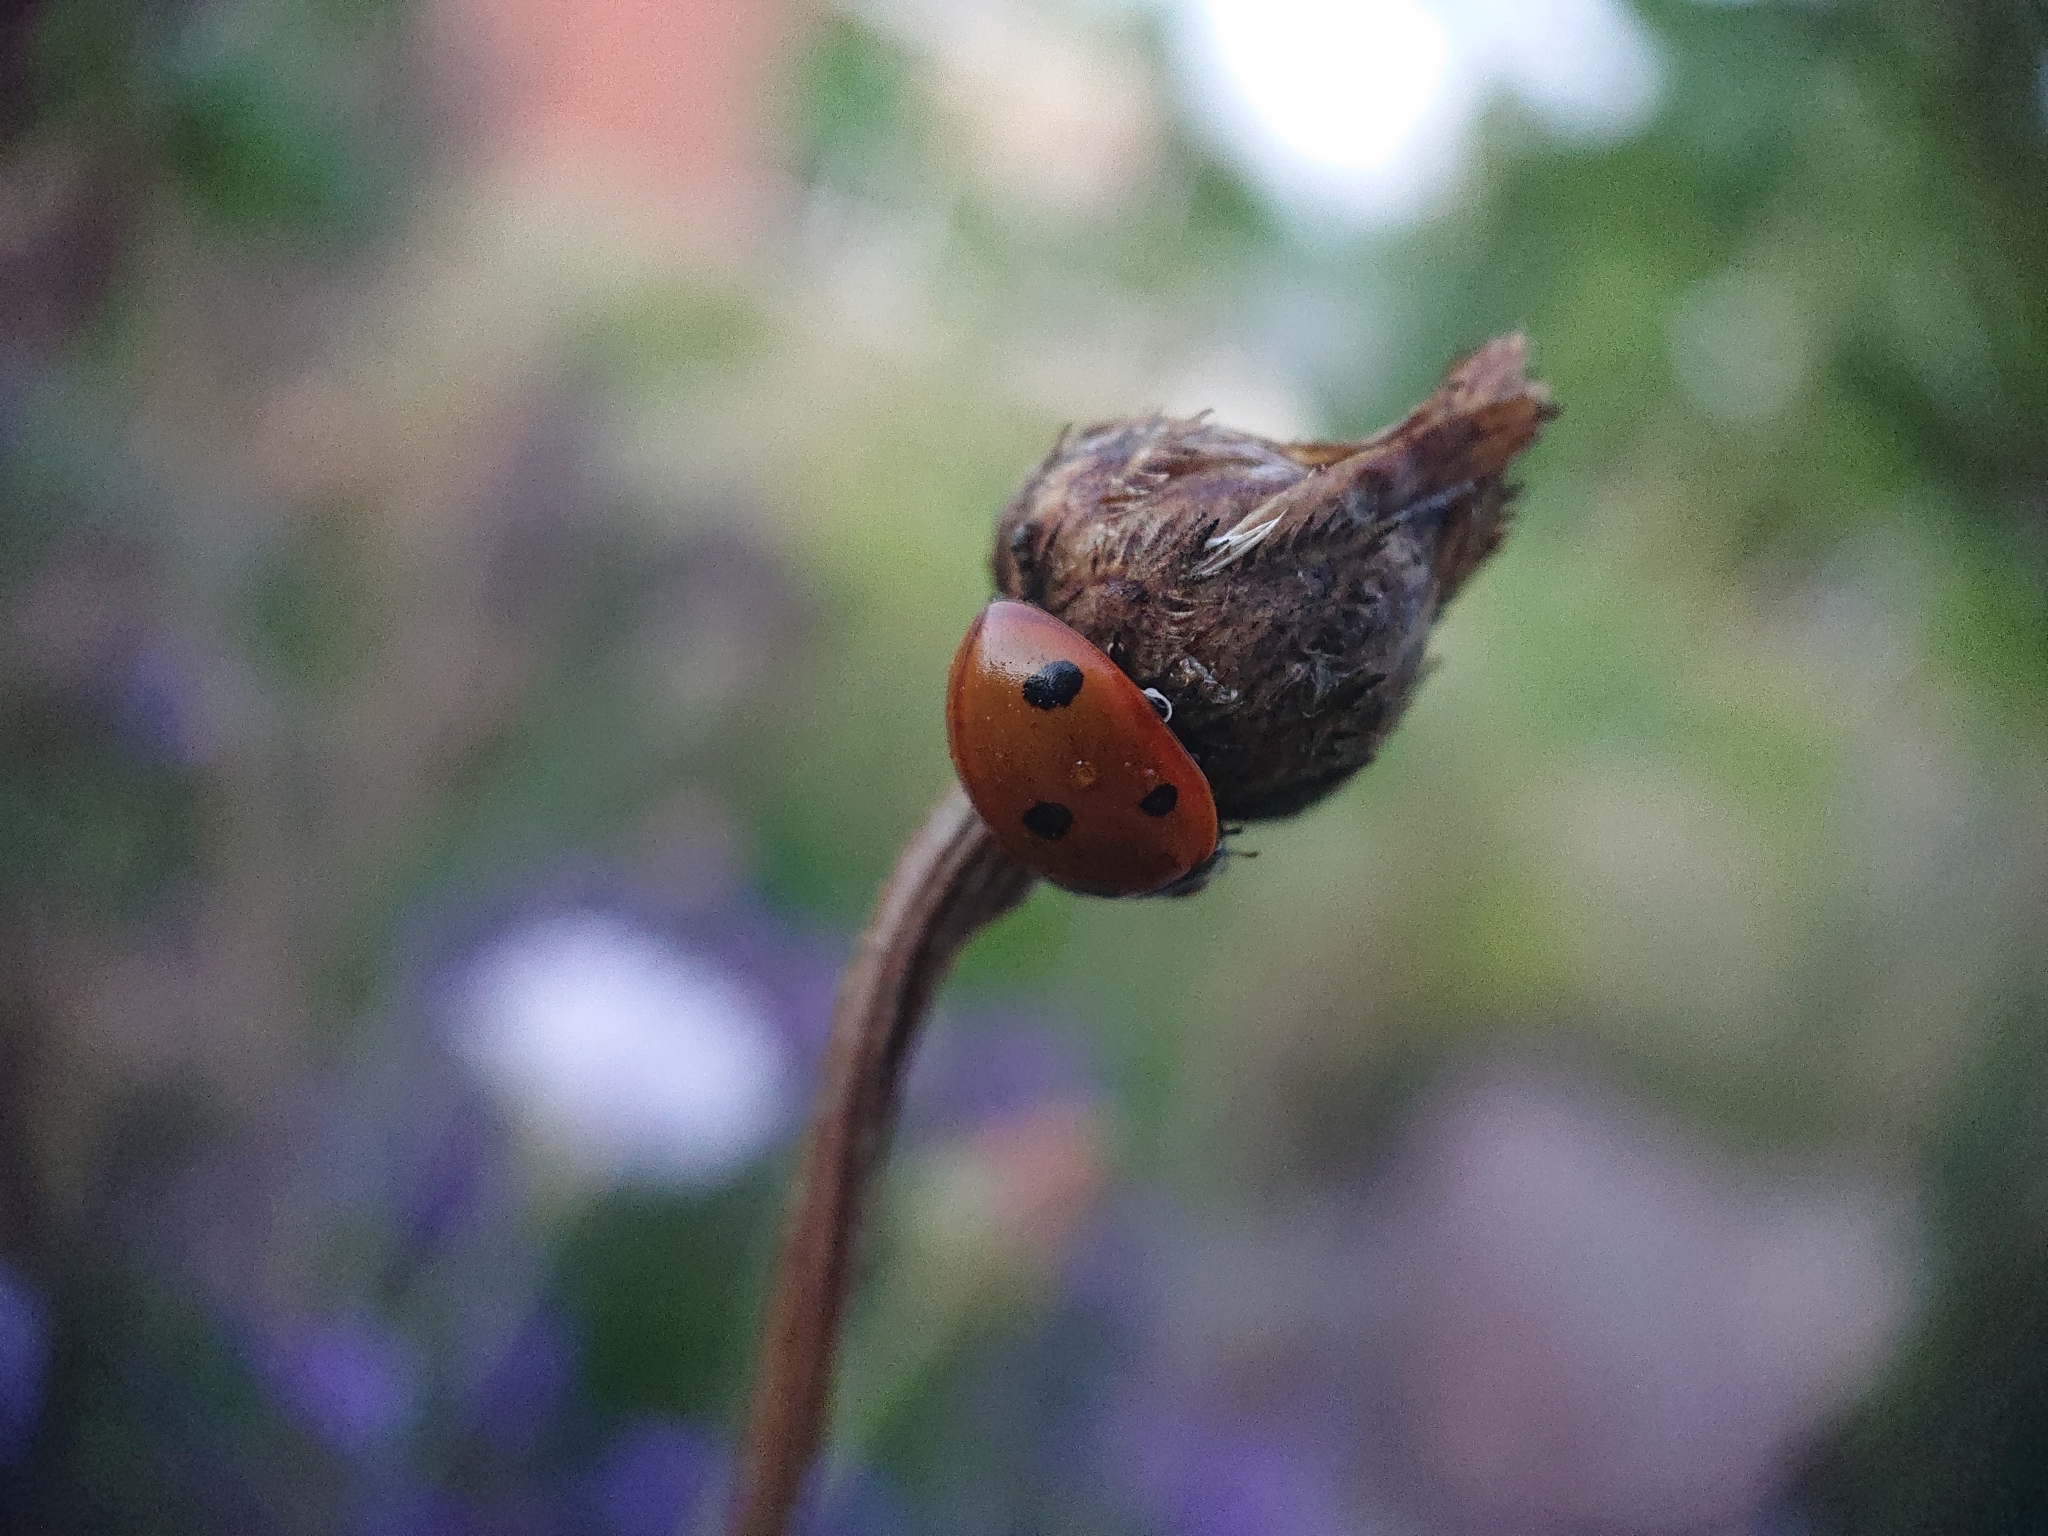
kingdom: Animalia
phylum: Arthropoda
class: Insecta
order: Coleoptera
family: Coccinellidae
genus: Coccinella
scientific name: Coccinella septempunctata
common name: Sevenspotted lady beetle
